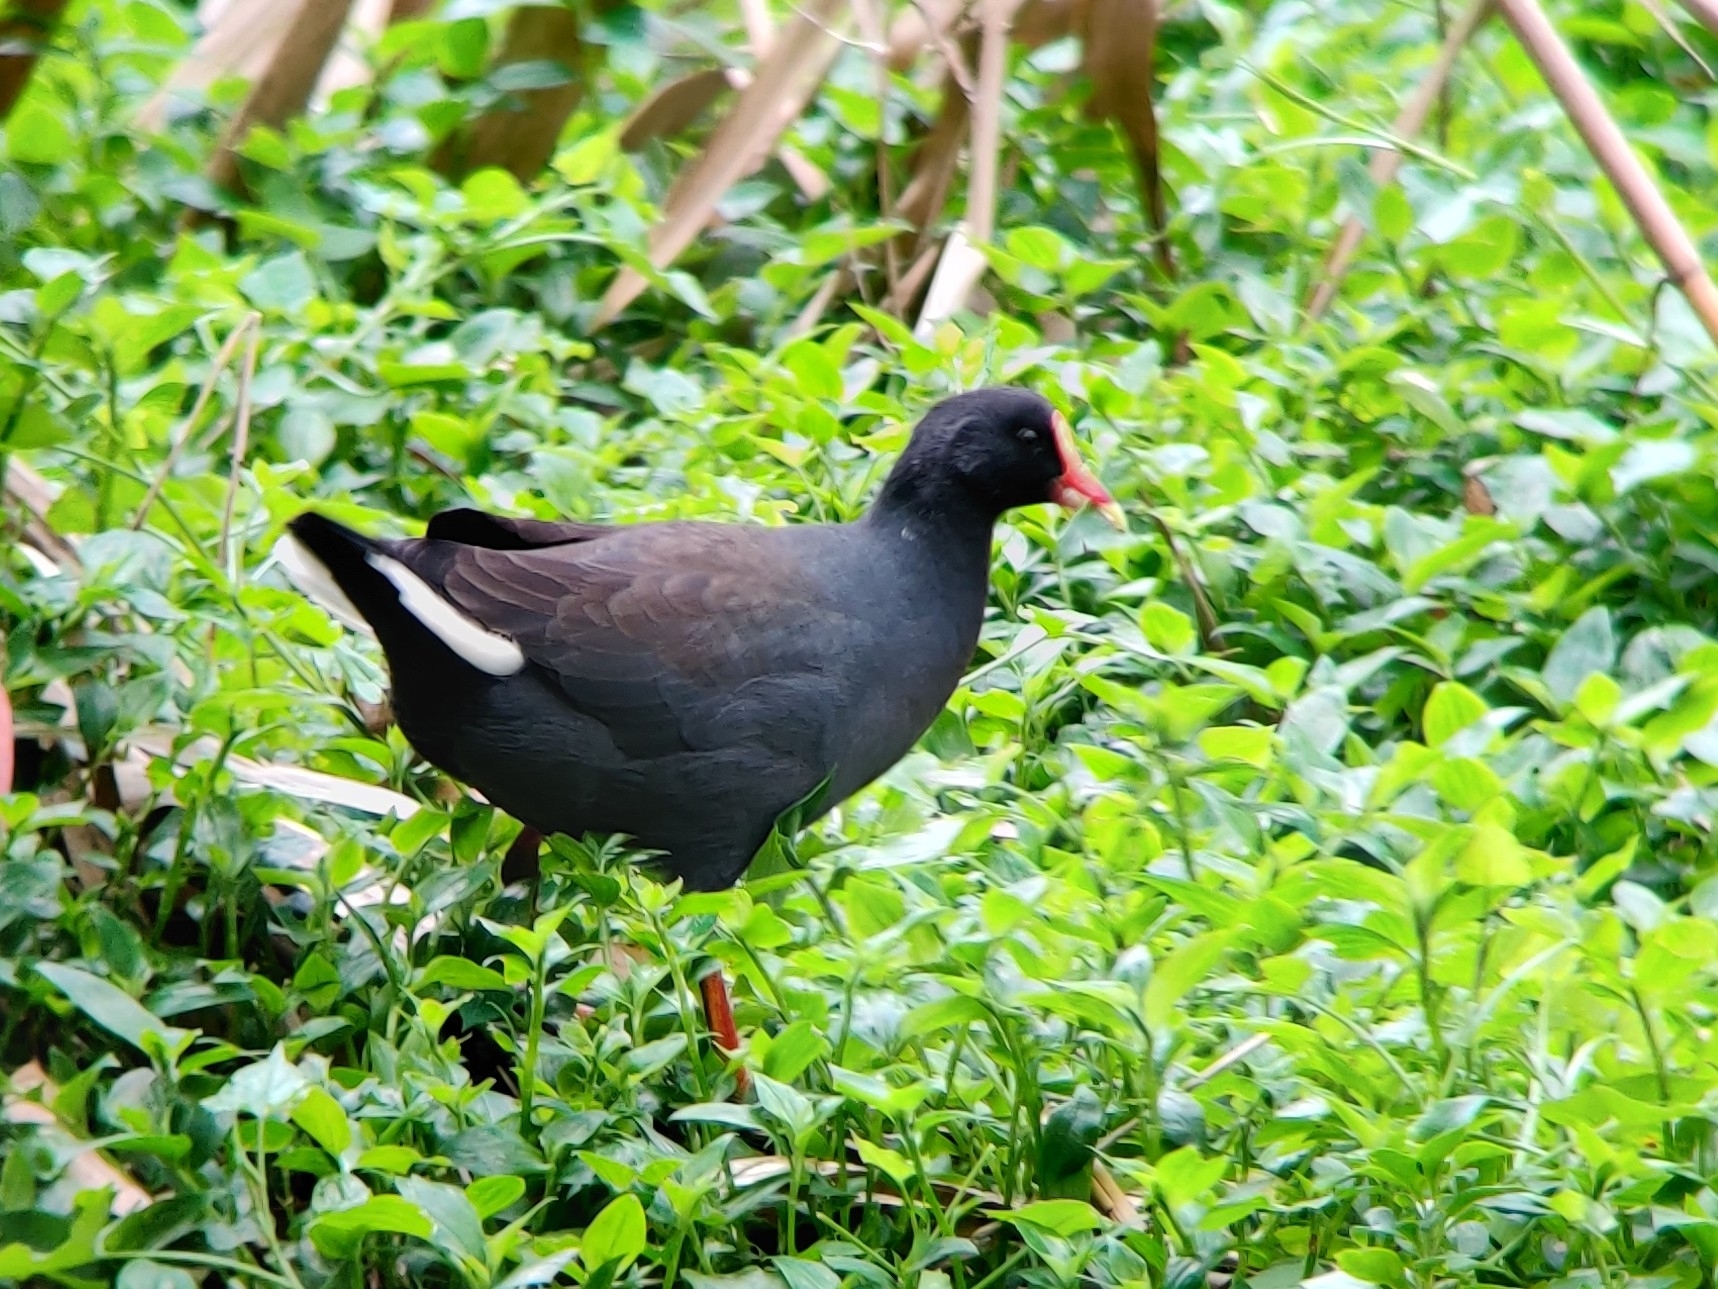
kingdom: Animalia
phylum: Chordata
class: Aves
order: Gruiformes
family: Rallidae
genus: Gallinula
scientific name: Gallinula tenebrosa
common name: Dusky moorhen
